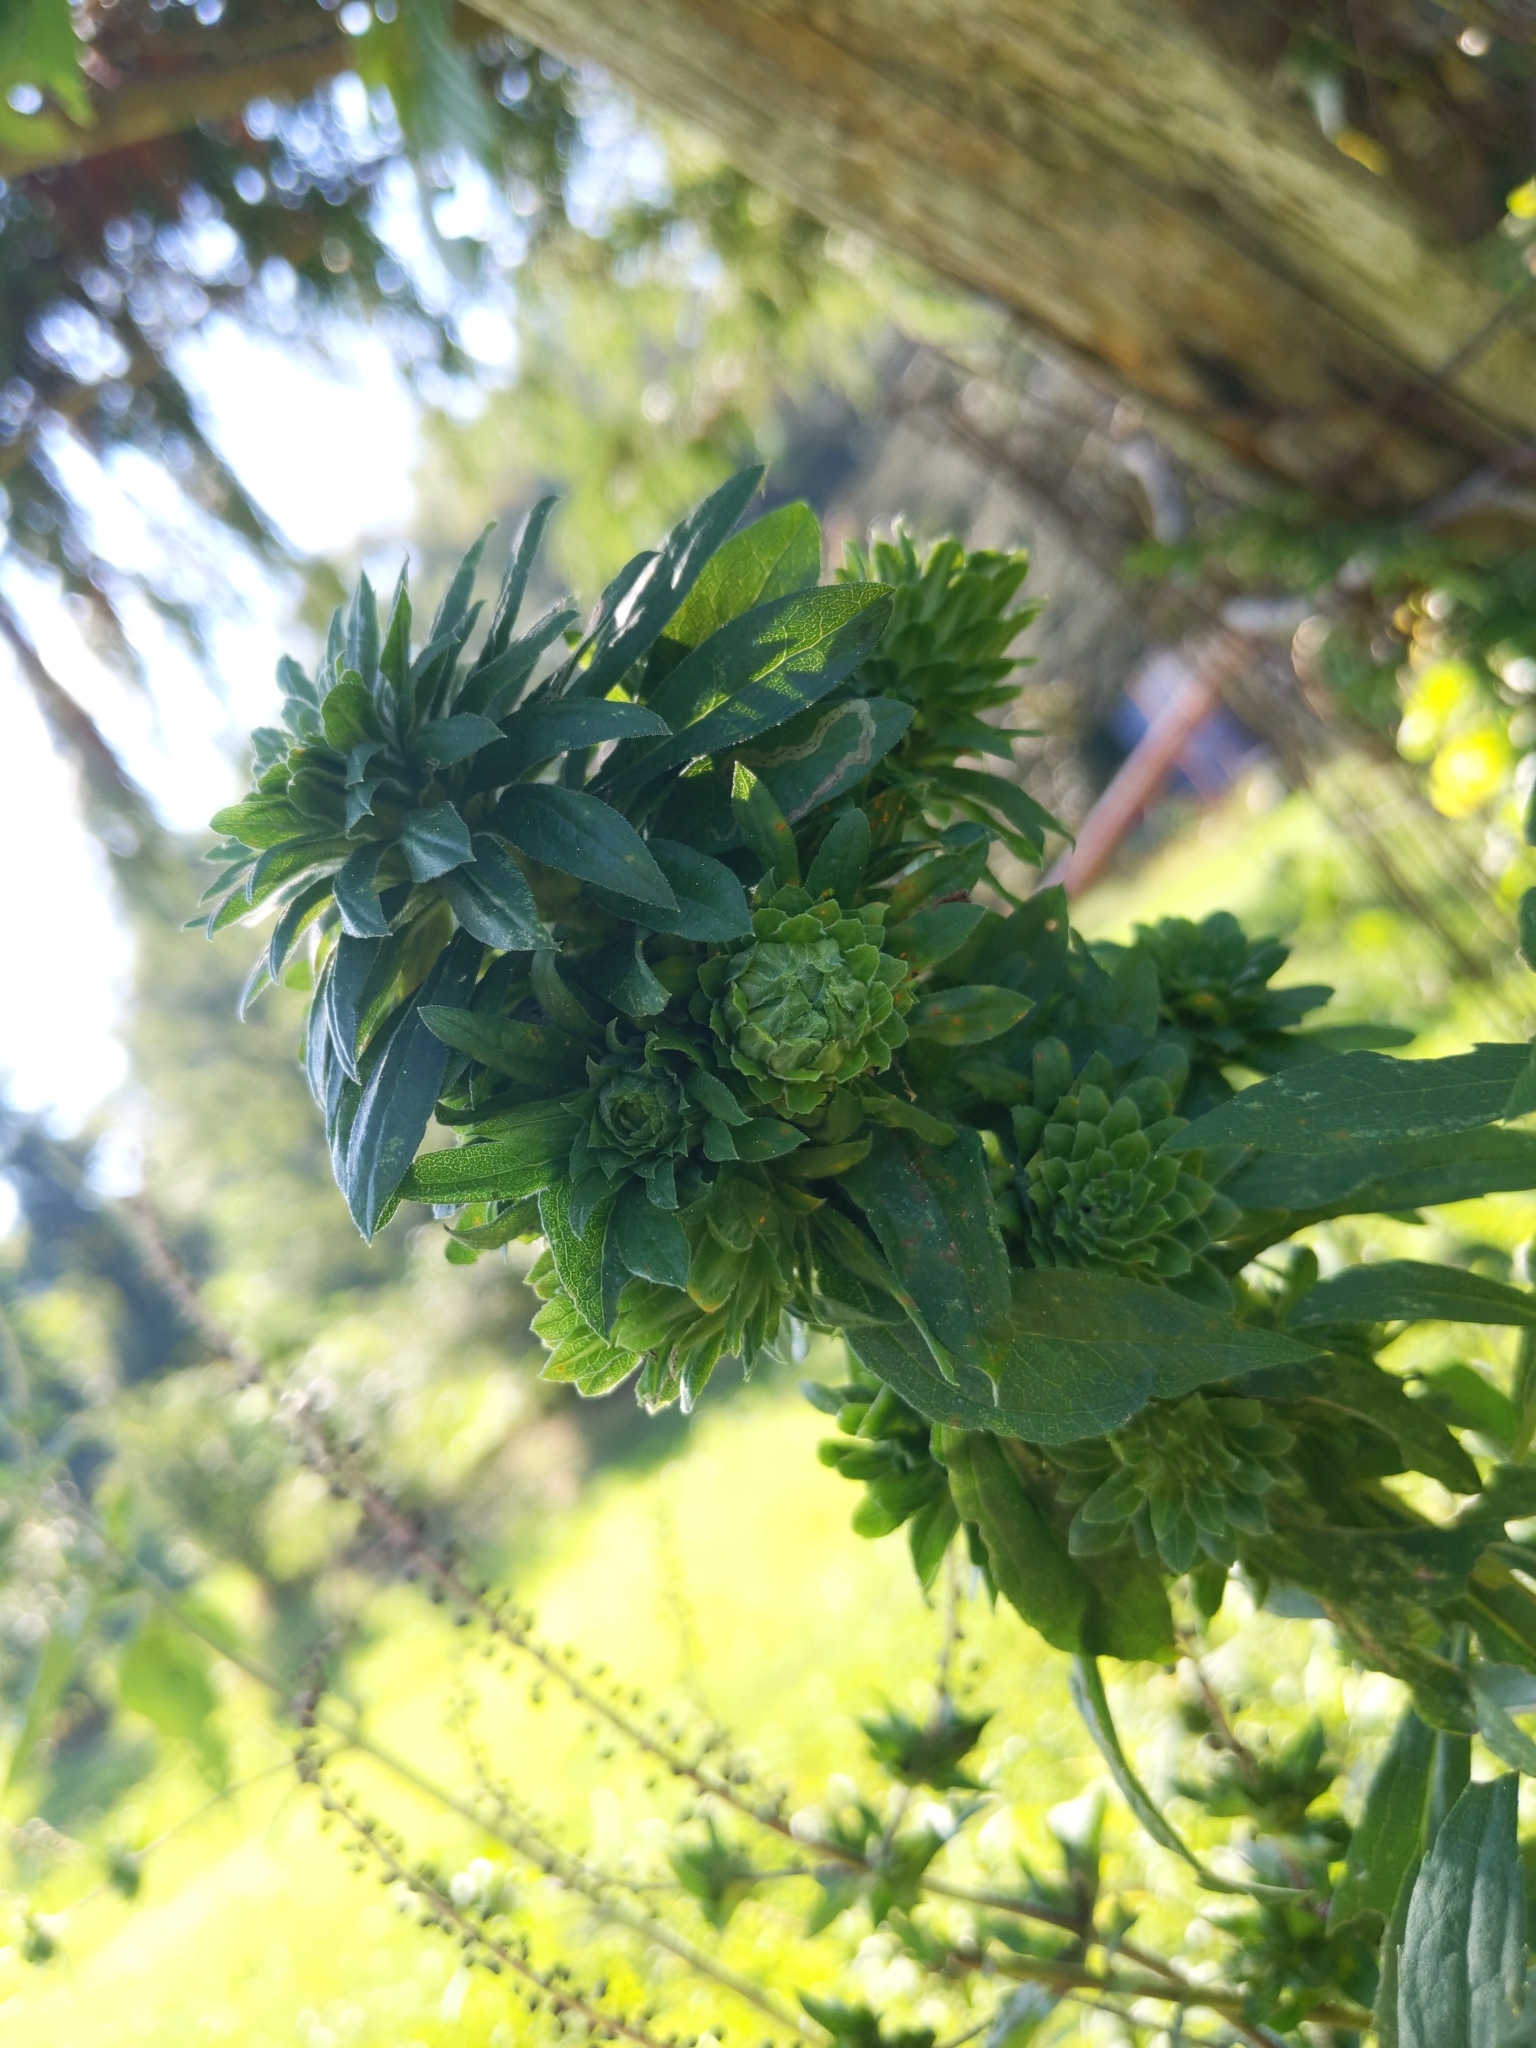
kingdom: Animalia
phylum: Arthropoda
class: Insecta
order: Diptera
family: Tephritidae
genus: Procecidochares
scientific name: Procecidochares atra
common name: Goldenrod brussels sprout gall fly
